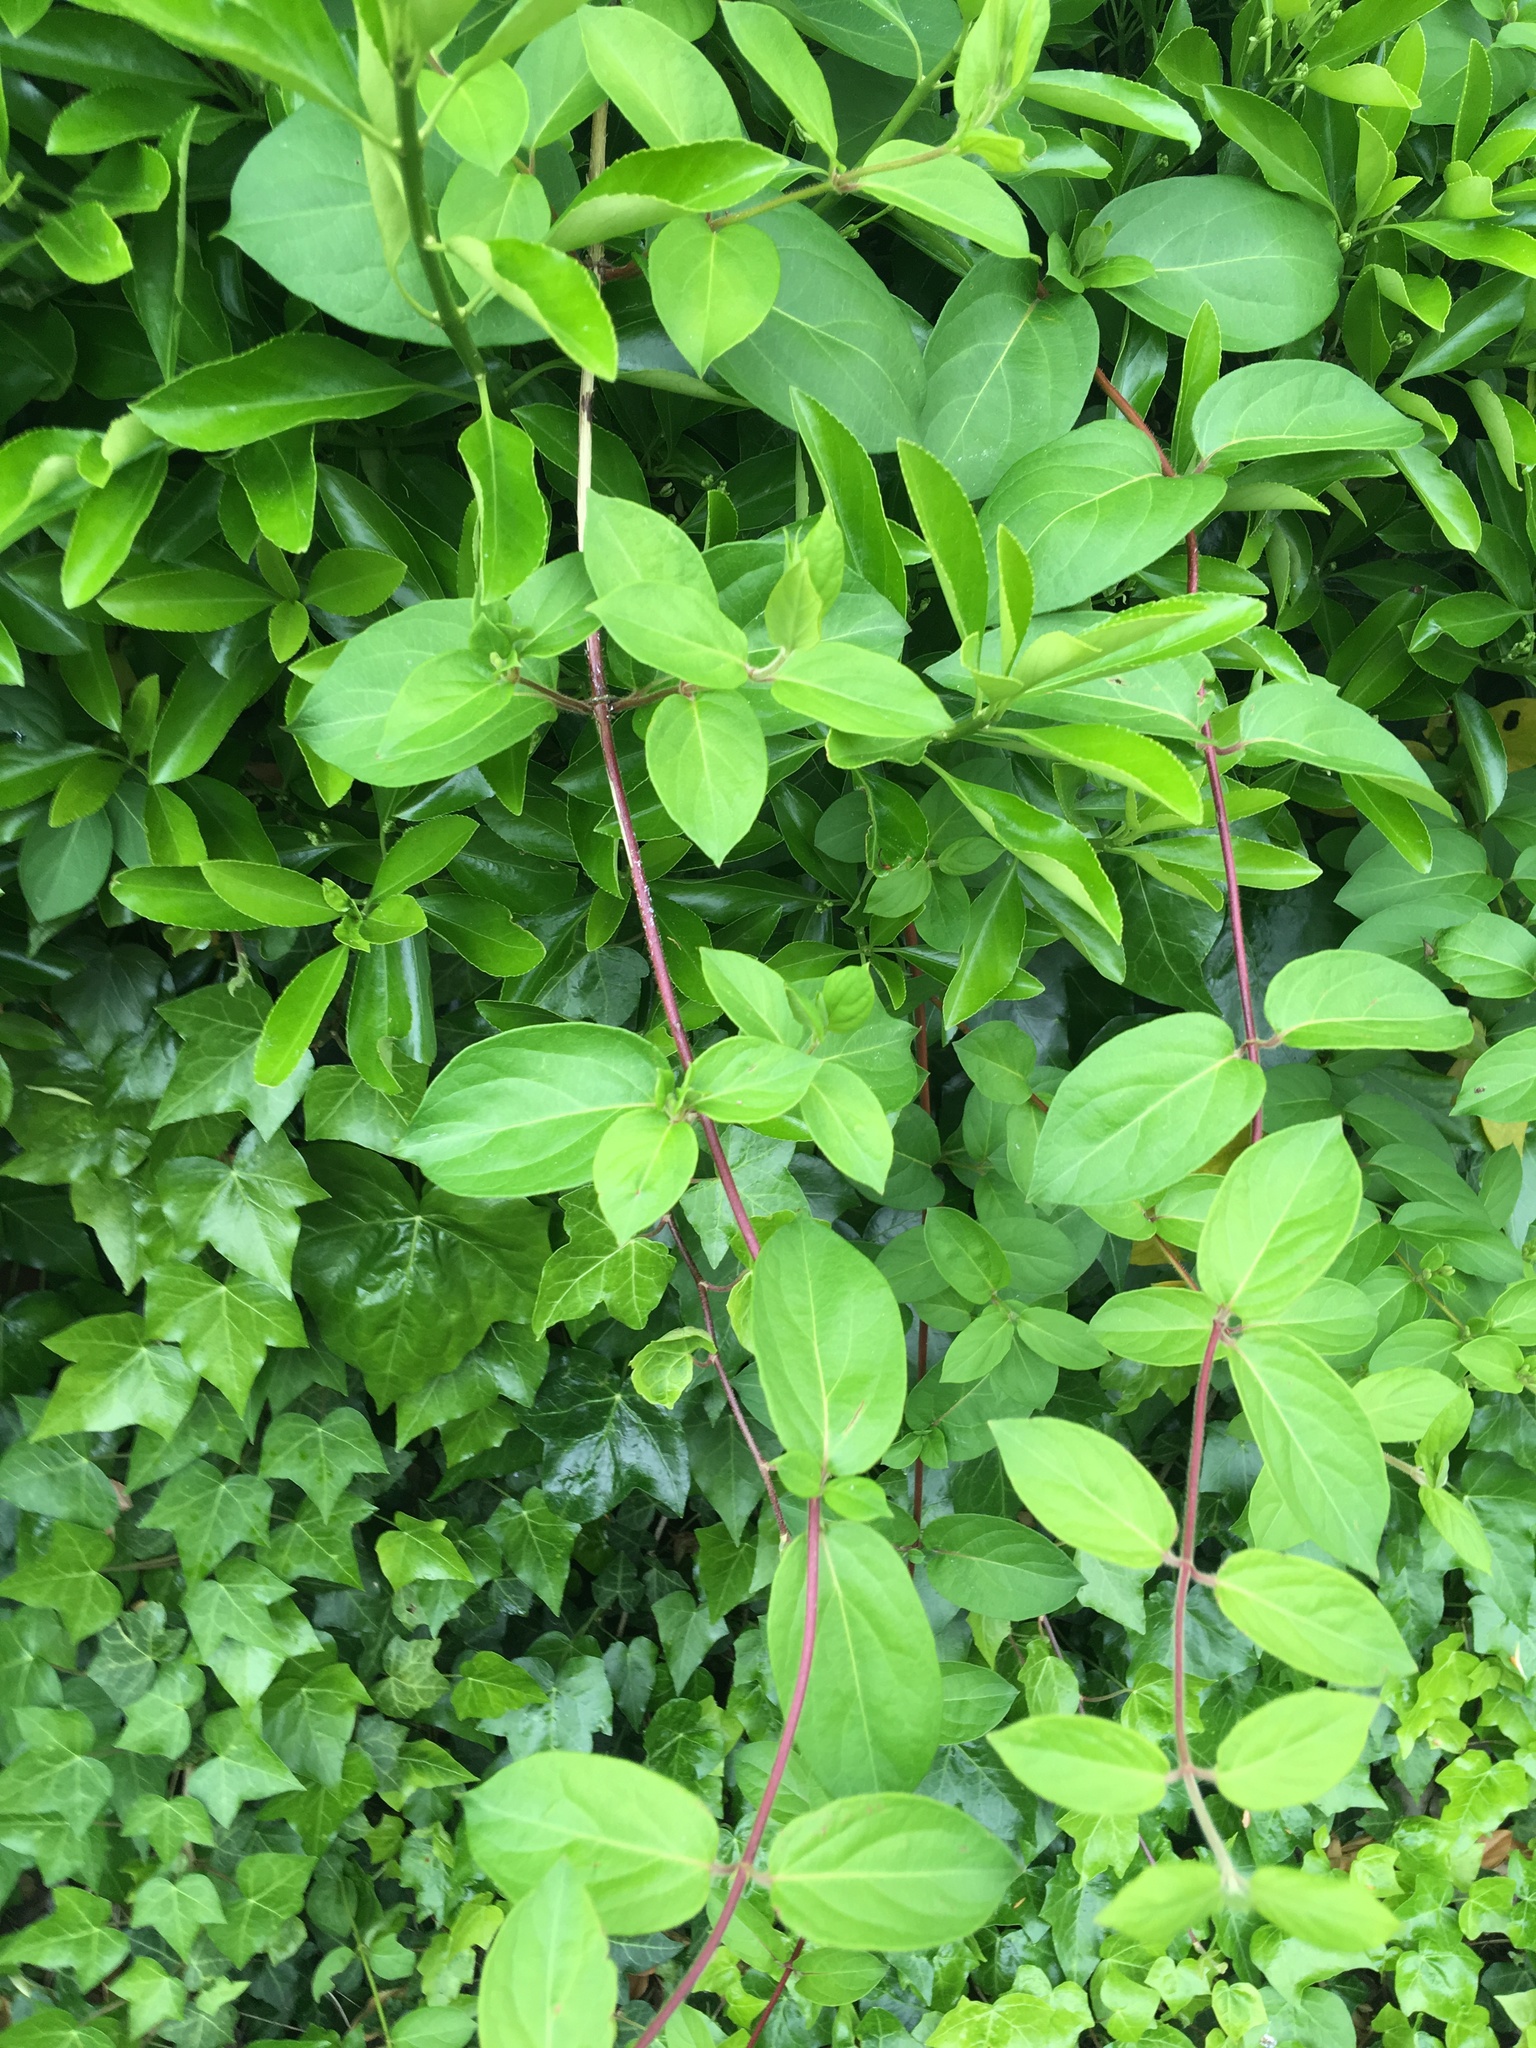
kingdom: Plantae
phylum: Tracheophyta
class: Magnoliopsida
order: Dipsacales
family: Caprifoliaceae
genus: Lonicera
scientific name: Lonicera japonica
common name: Japanese honeysuckle
